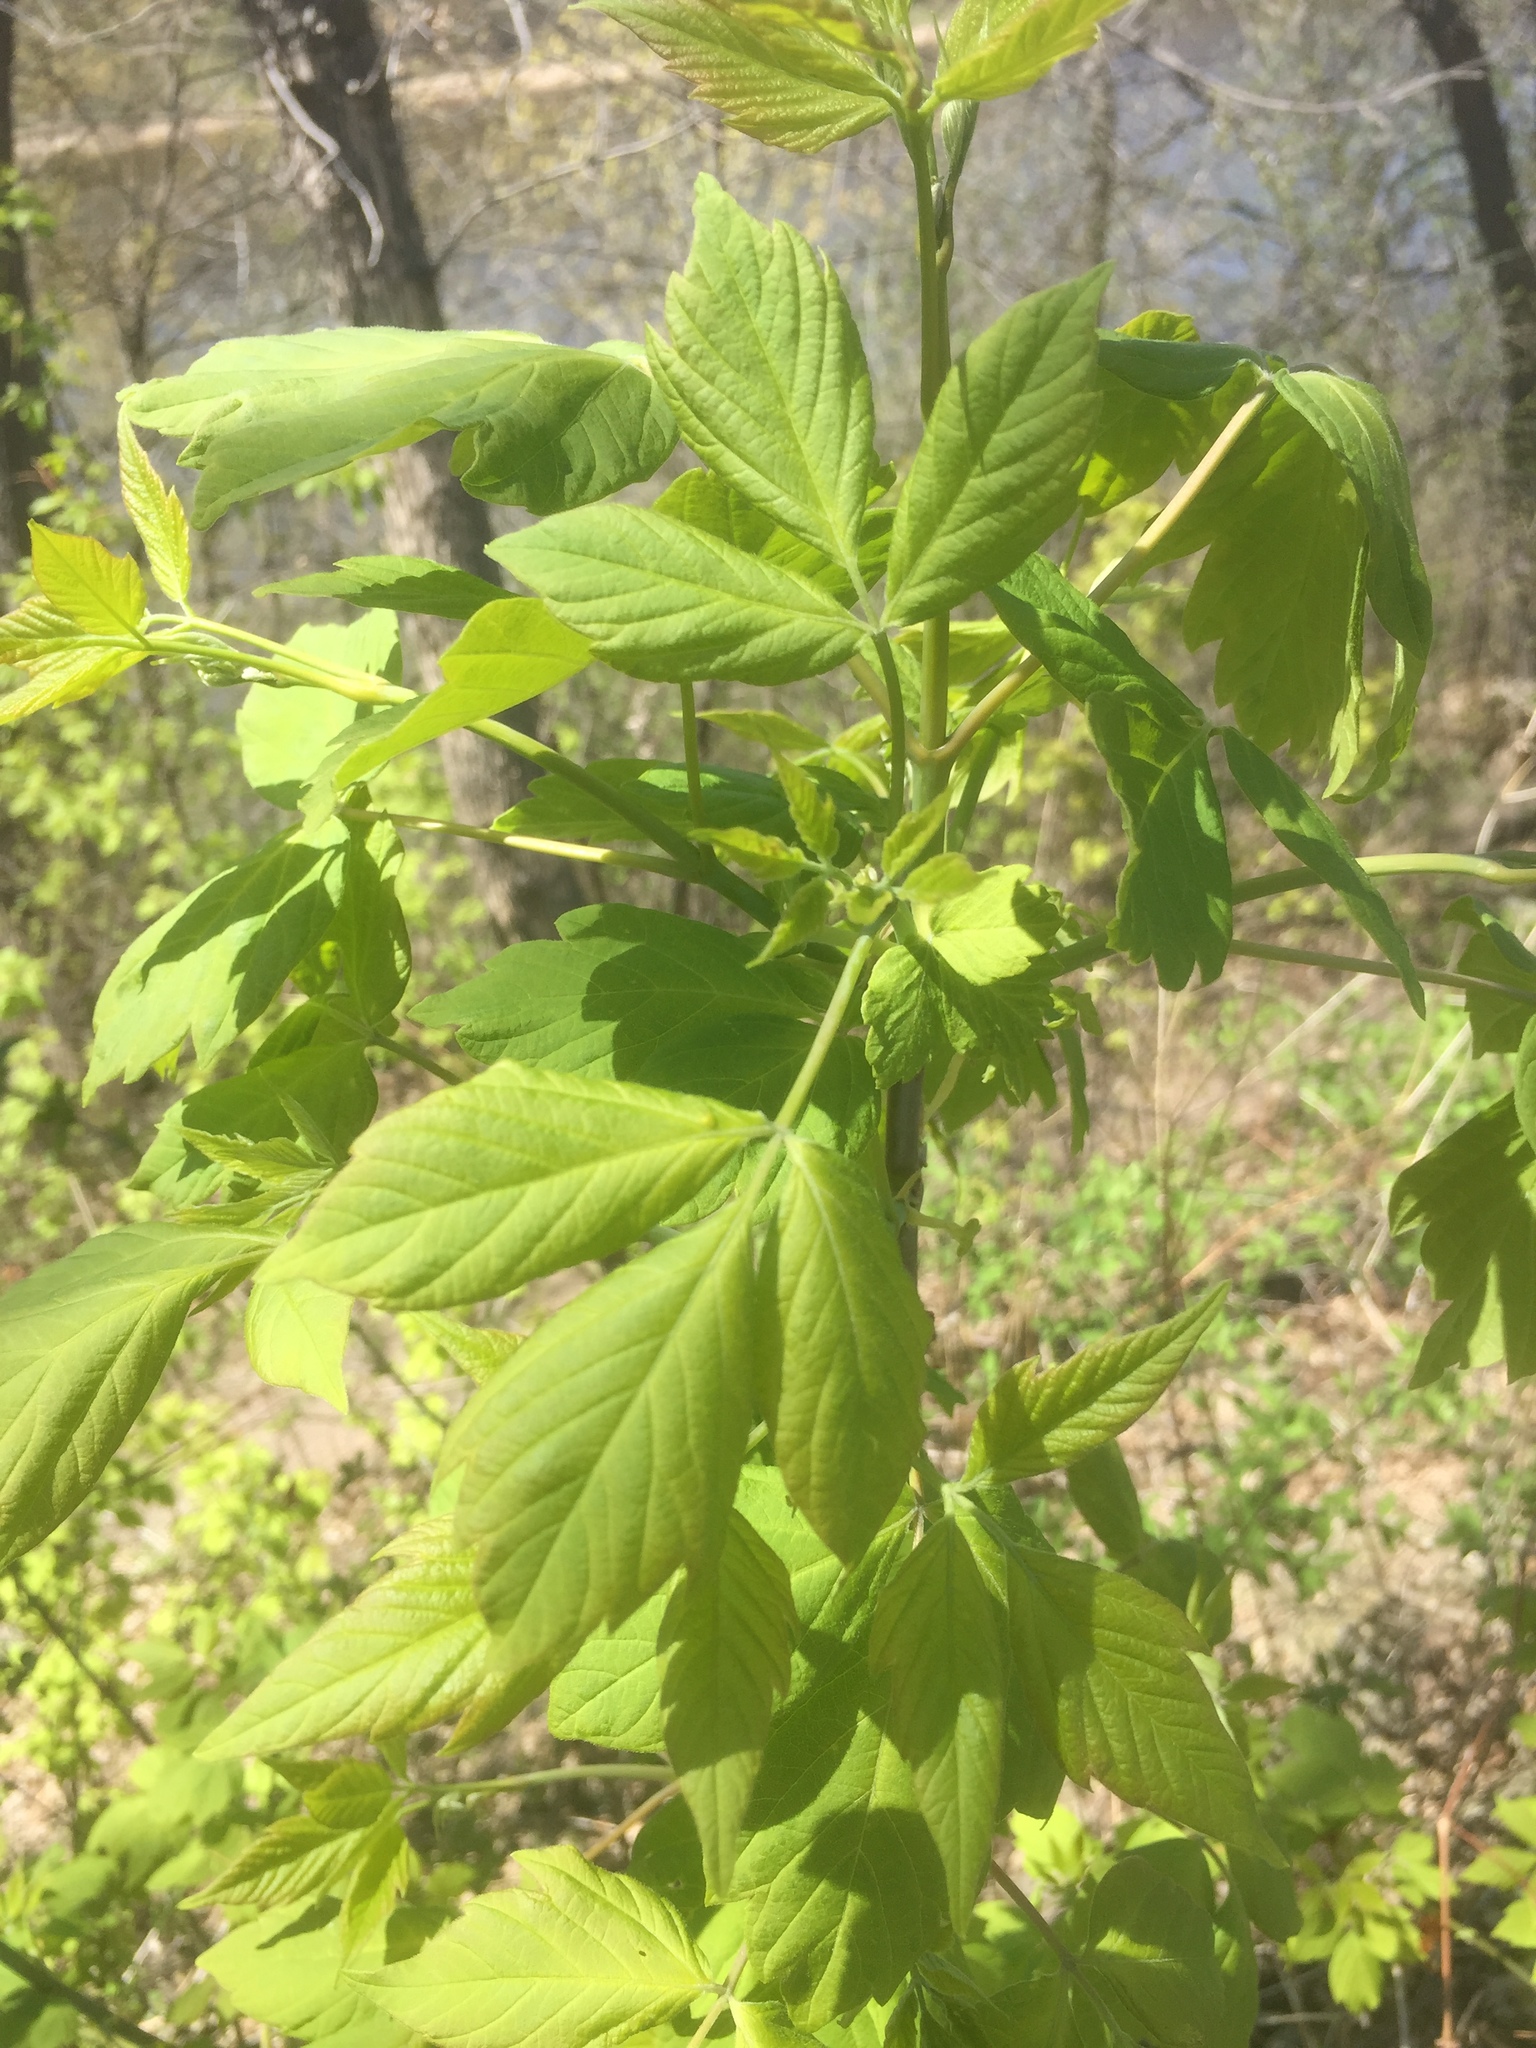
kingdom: Plantae
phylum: Tracheophyta
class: Magnoliopsida
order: Sapindales
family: Sapindaceae
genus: Acer
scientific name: Acer negundo
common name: Ashleaf maple
